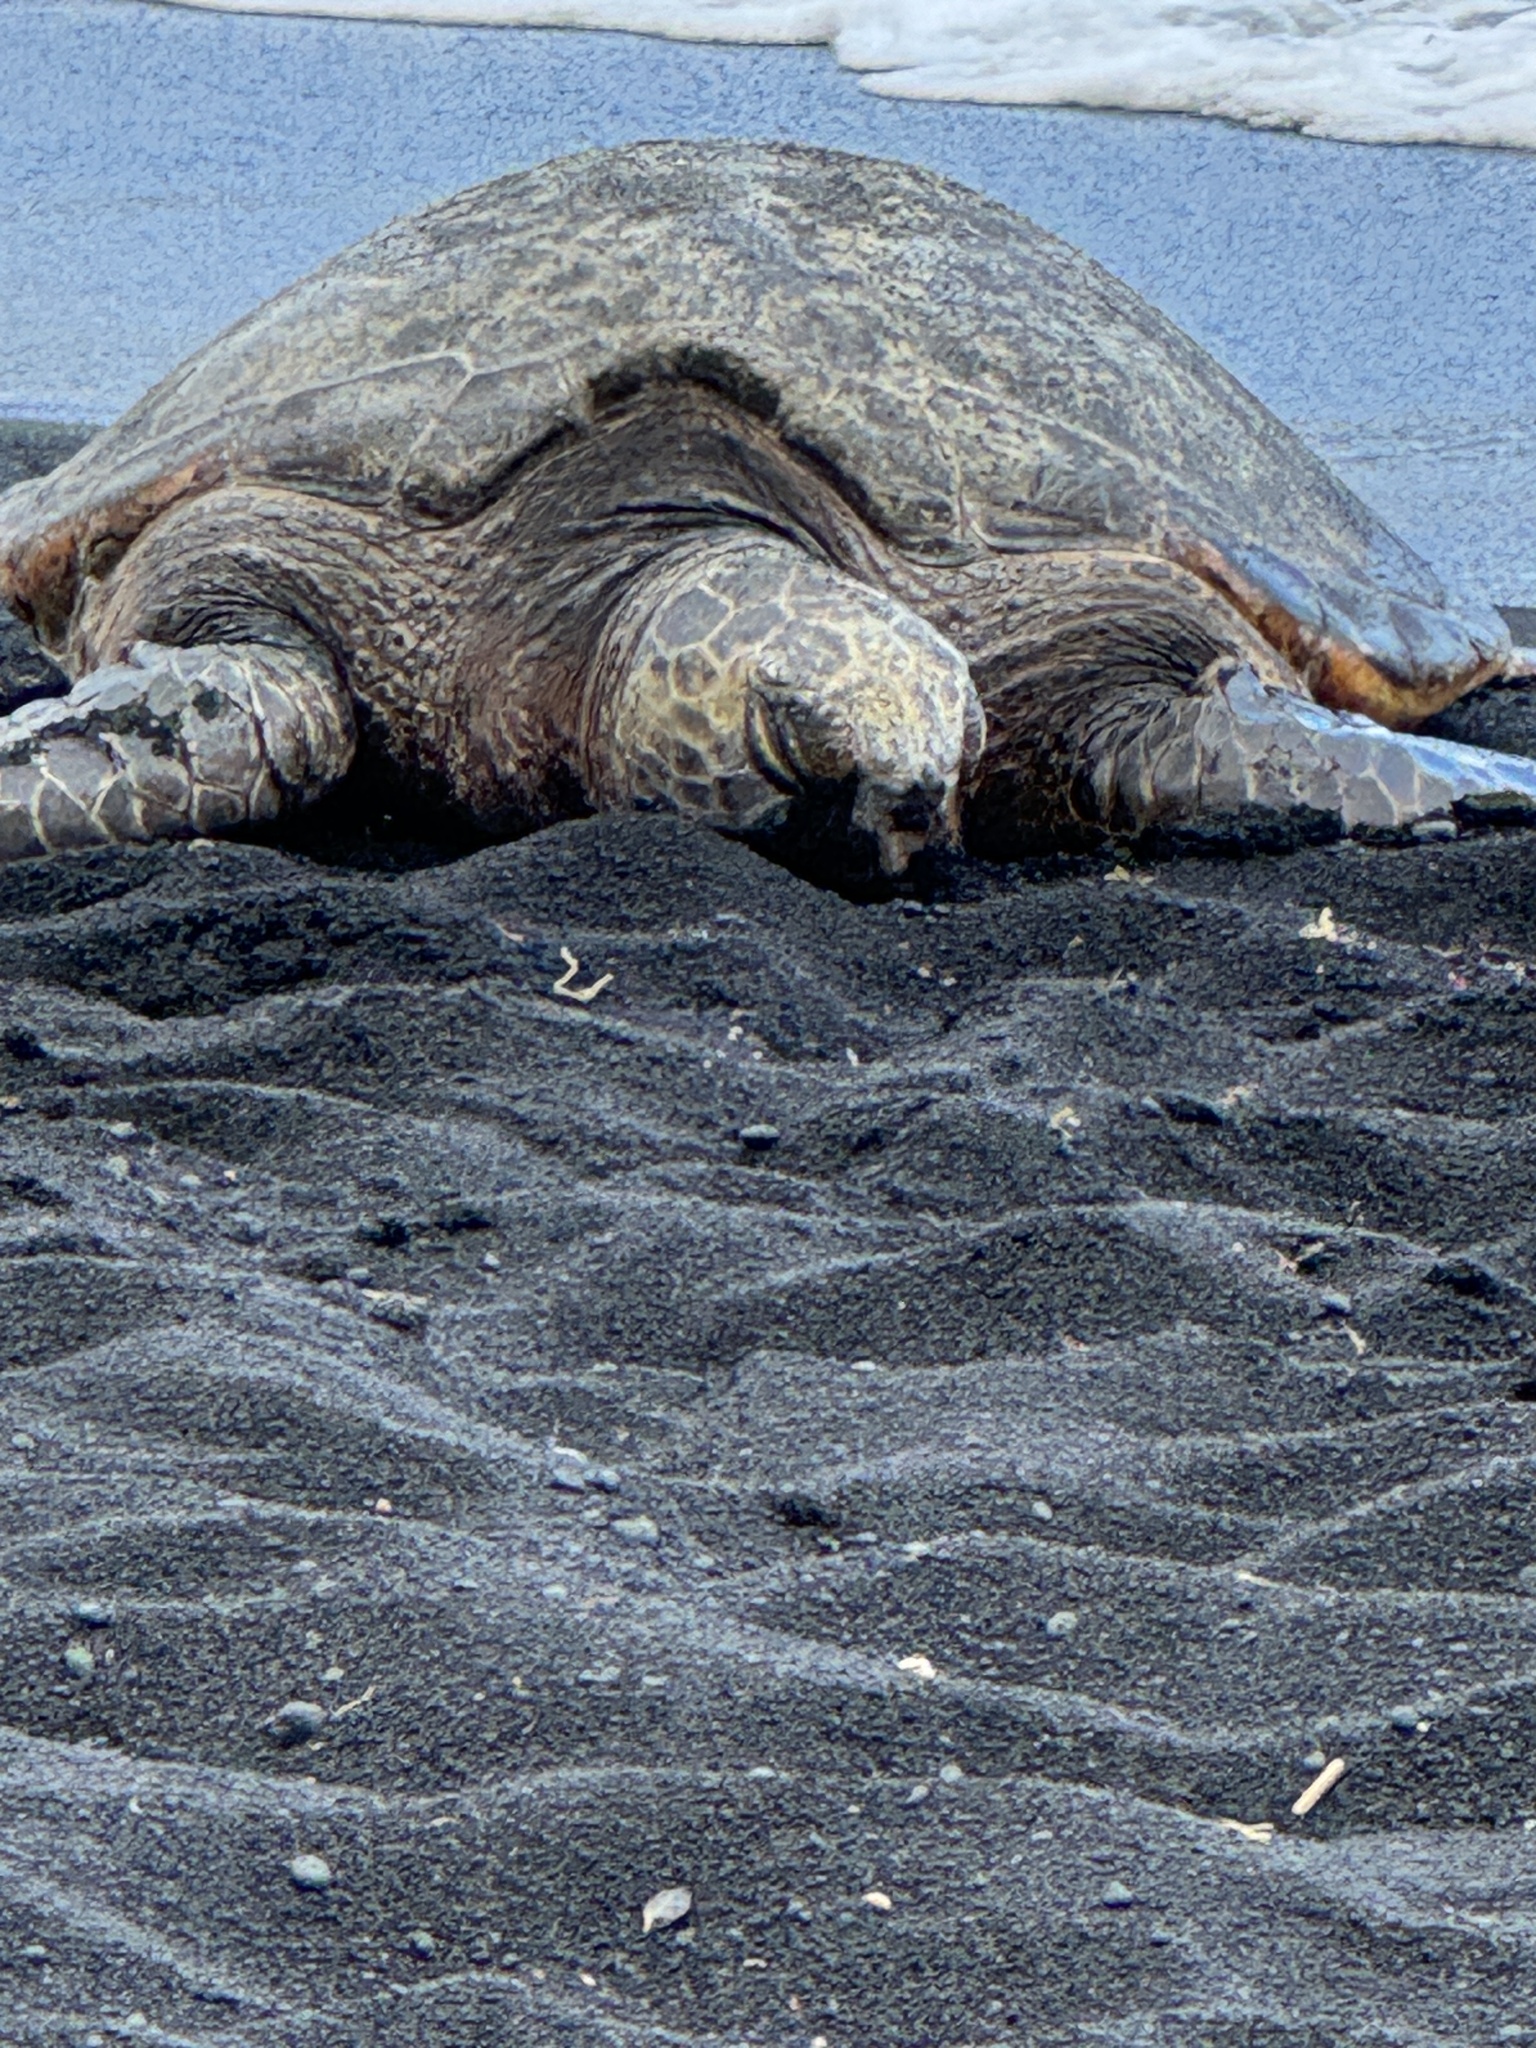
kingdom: Animalia
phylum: Chordata
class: Testudines
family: Cheloniidae
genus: Chelonia
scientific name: Chelonia mydas
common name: Green turtle
